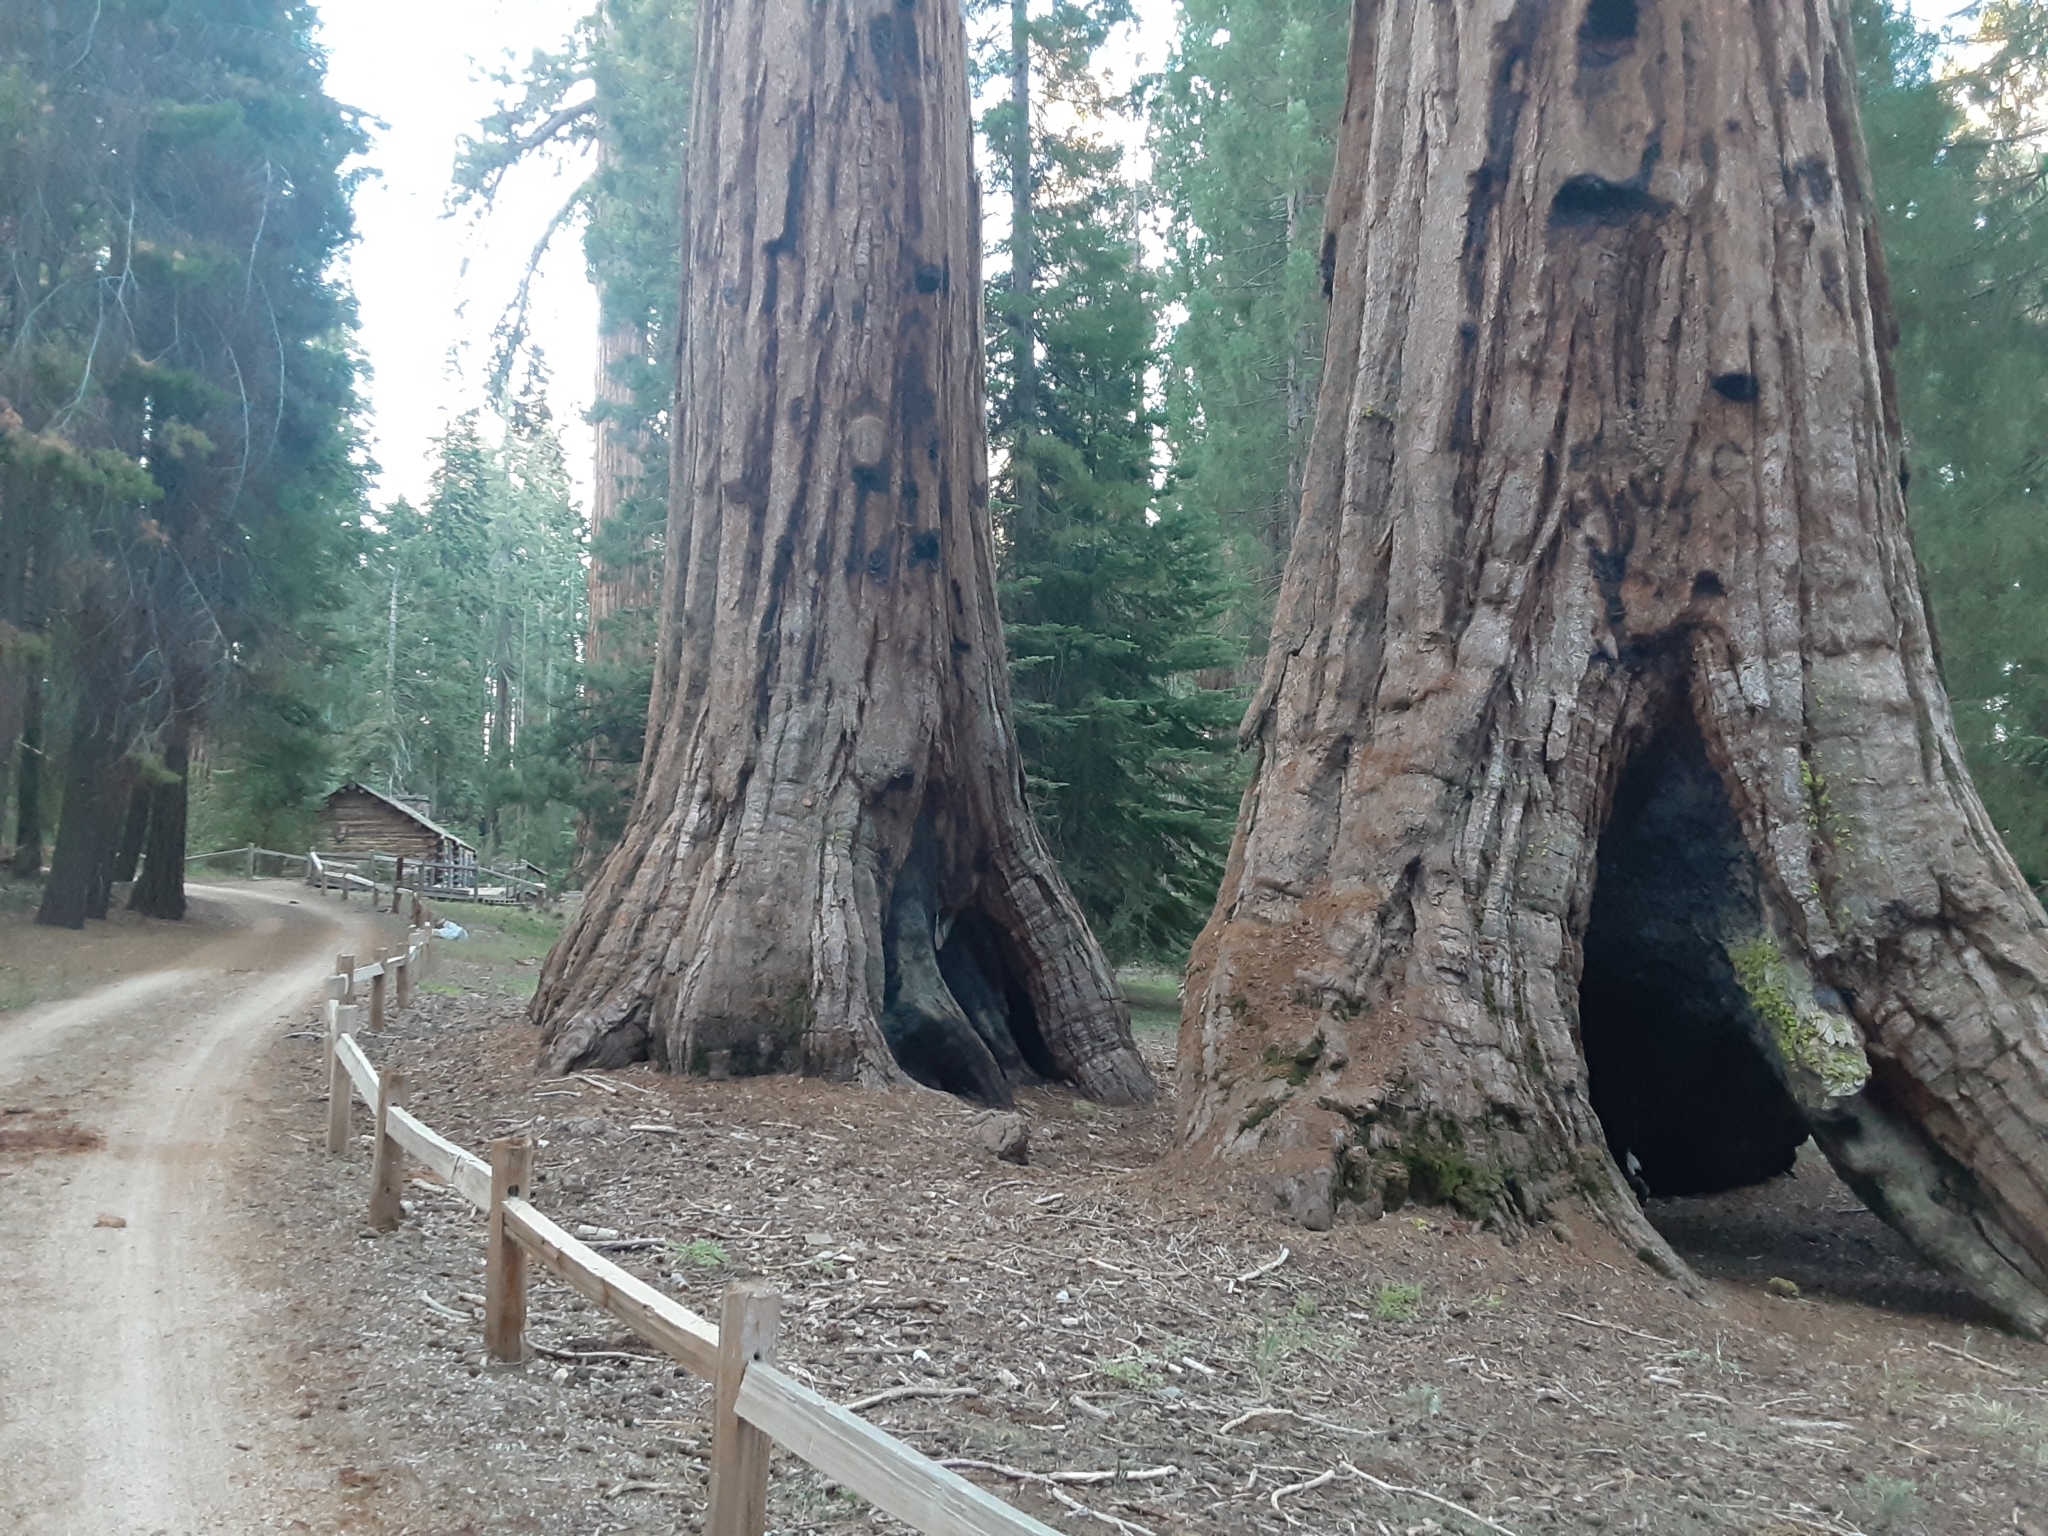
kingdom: Plantae
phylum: Tracheophyta
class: Pinopsida
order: Pinales
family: Cupressaceae
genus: Sequoiadendron
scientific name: Sequoiadendron giganteum
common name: Wellingtonia
